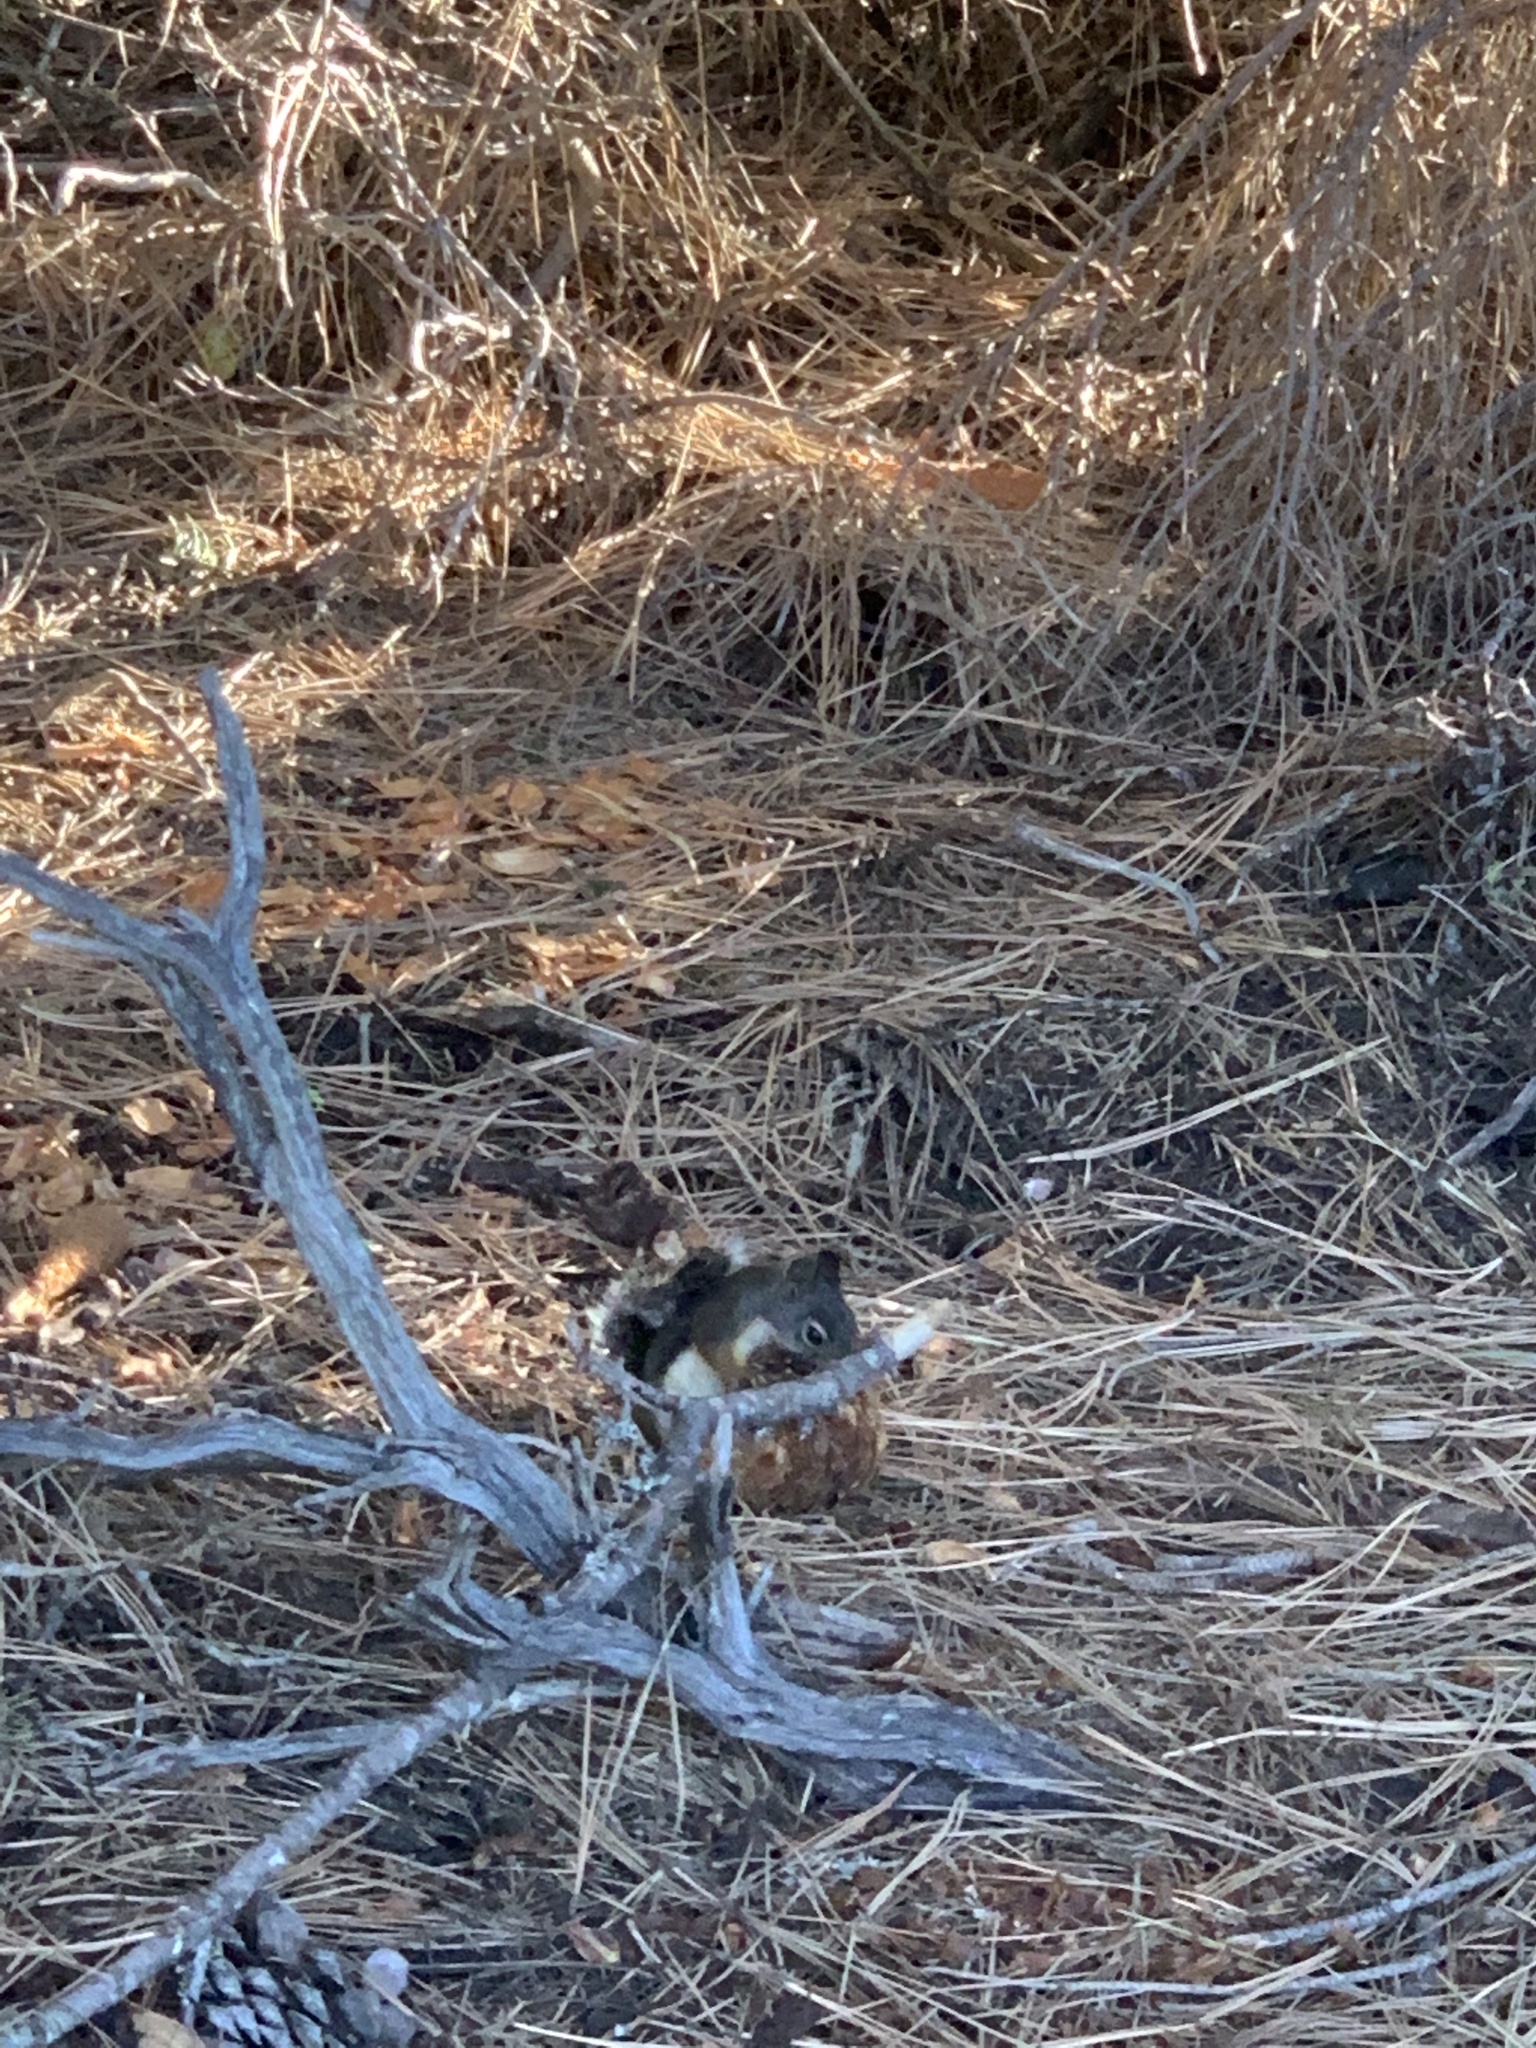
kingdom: Animalia
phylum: Chordata
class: Mammalia
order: Rodentia
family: Sciuridae
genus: Tamiasciurus
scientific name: Tamiasciurus douglasii
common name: Douglas's squirrel
